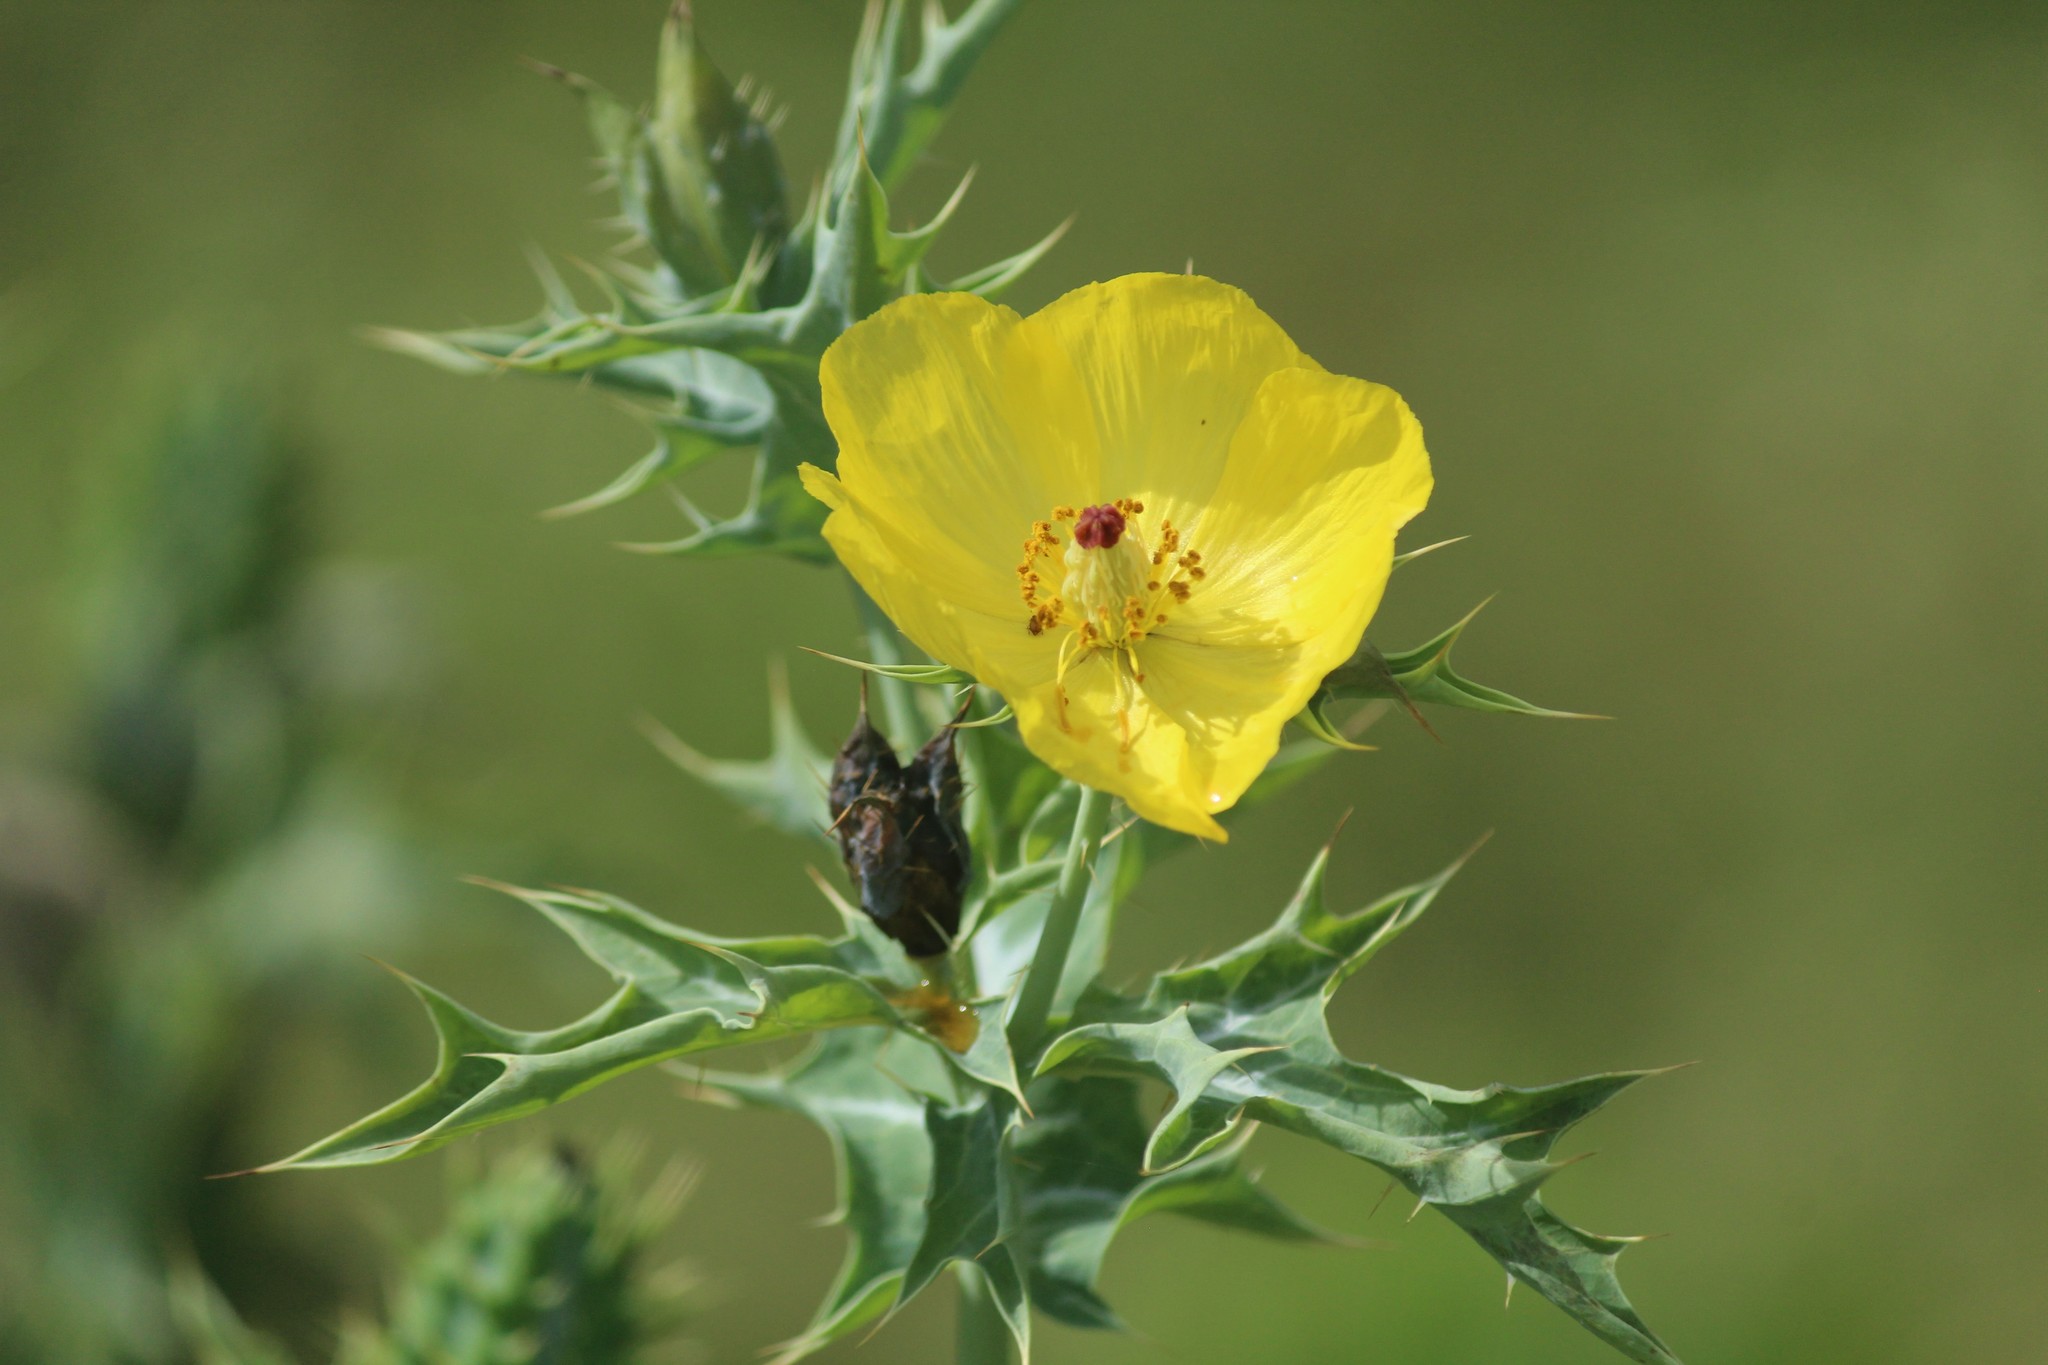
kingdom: Plantae
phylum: Tracheophyta
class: Magnoliopsida
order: Ranunculales
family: Papaveraceae
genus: Argemone
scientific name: Argemone mexicana
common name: Mexican poppy
